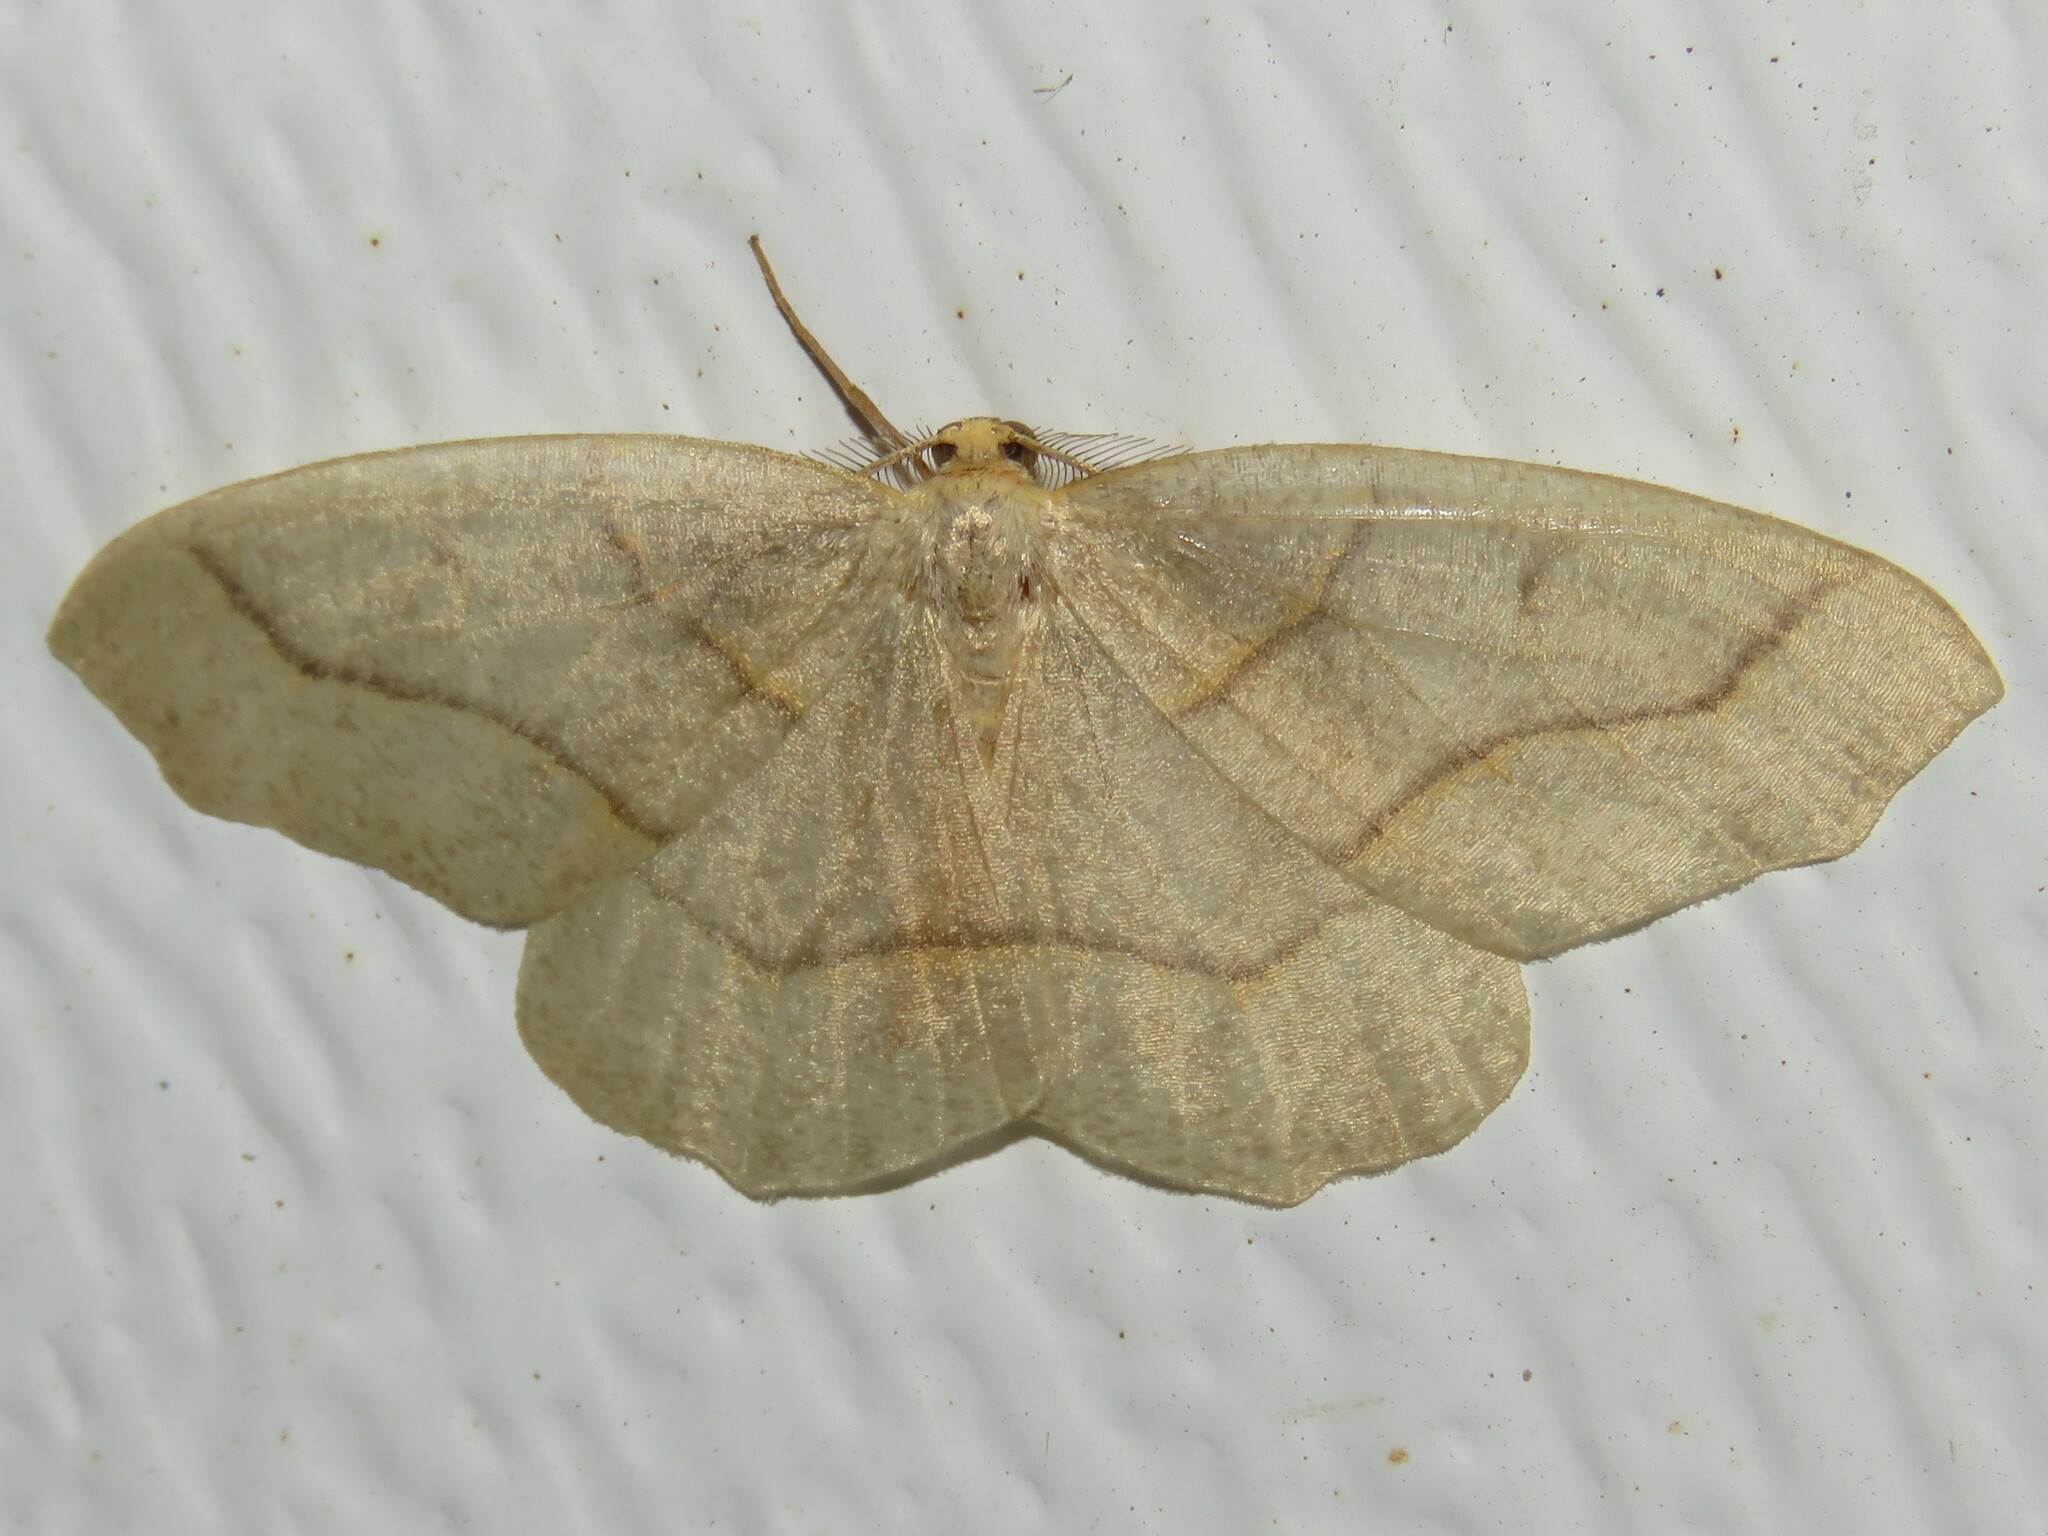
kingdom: Animalia
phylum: Arthropoda
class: Insecta
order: Lepidoptera
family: Geometridae
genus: Lambdina
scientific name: Lambdina fiscellaria
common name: Hemlock looper
